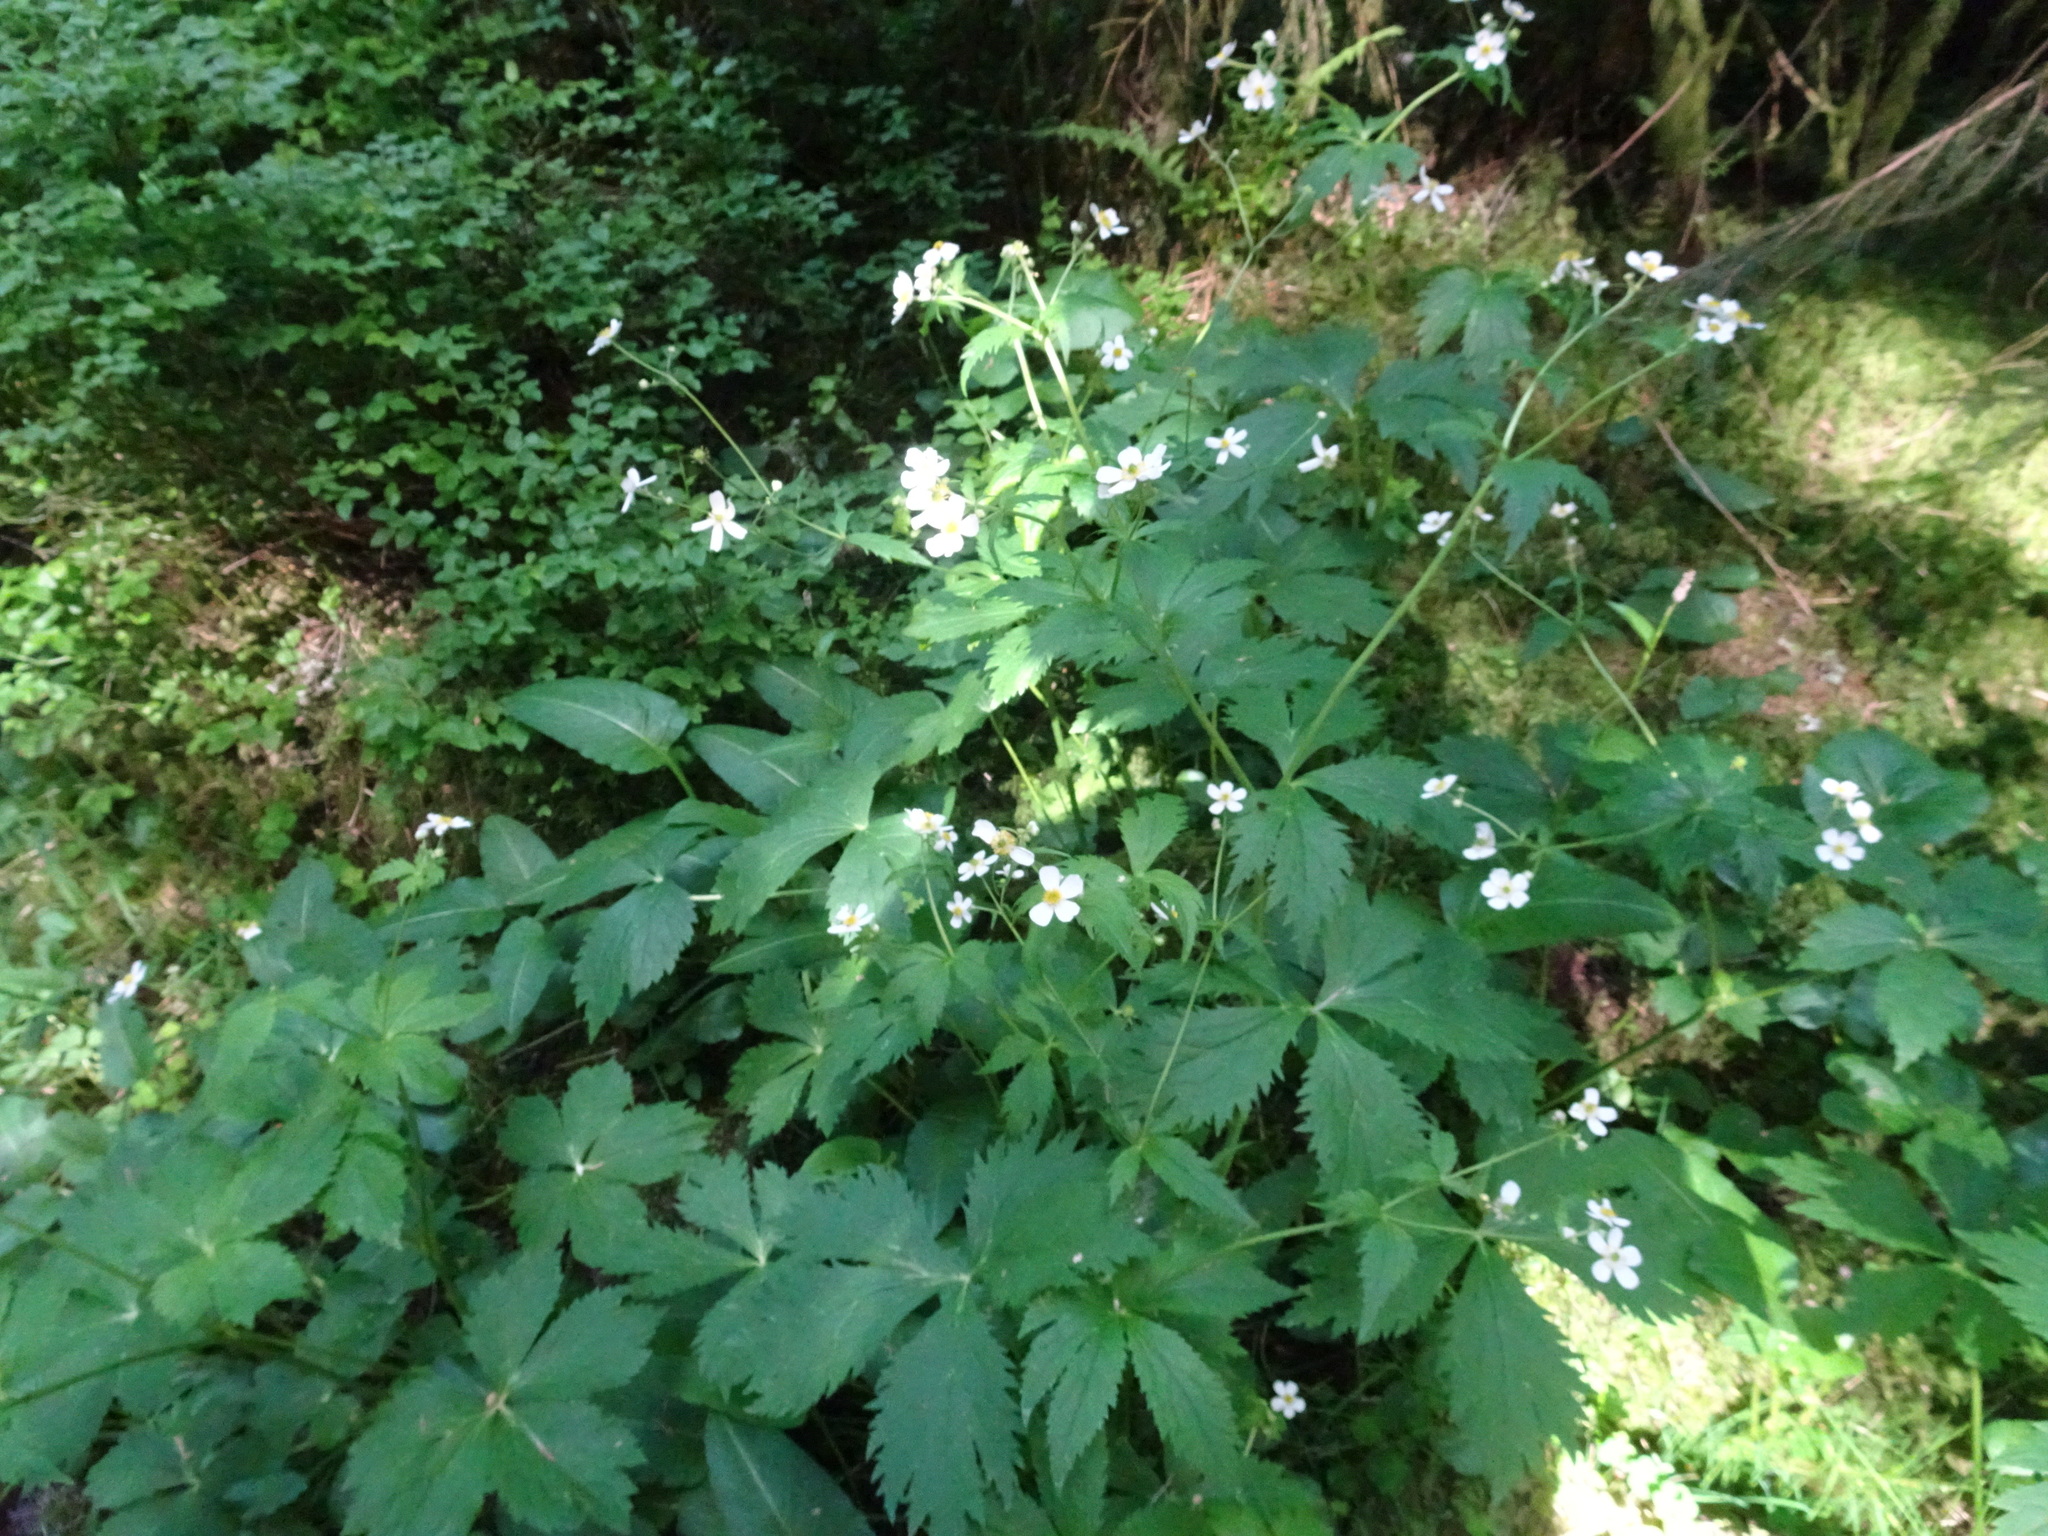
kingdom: Plantae
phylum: Tracheophyta
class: Magnoliopsida
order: Ranunculales
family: Ranunculaceae
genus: Ranunculus
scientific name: Ranunculus aconitifolius
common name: Aconite-leaved buttercup
